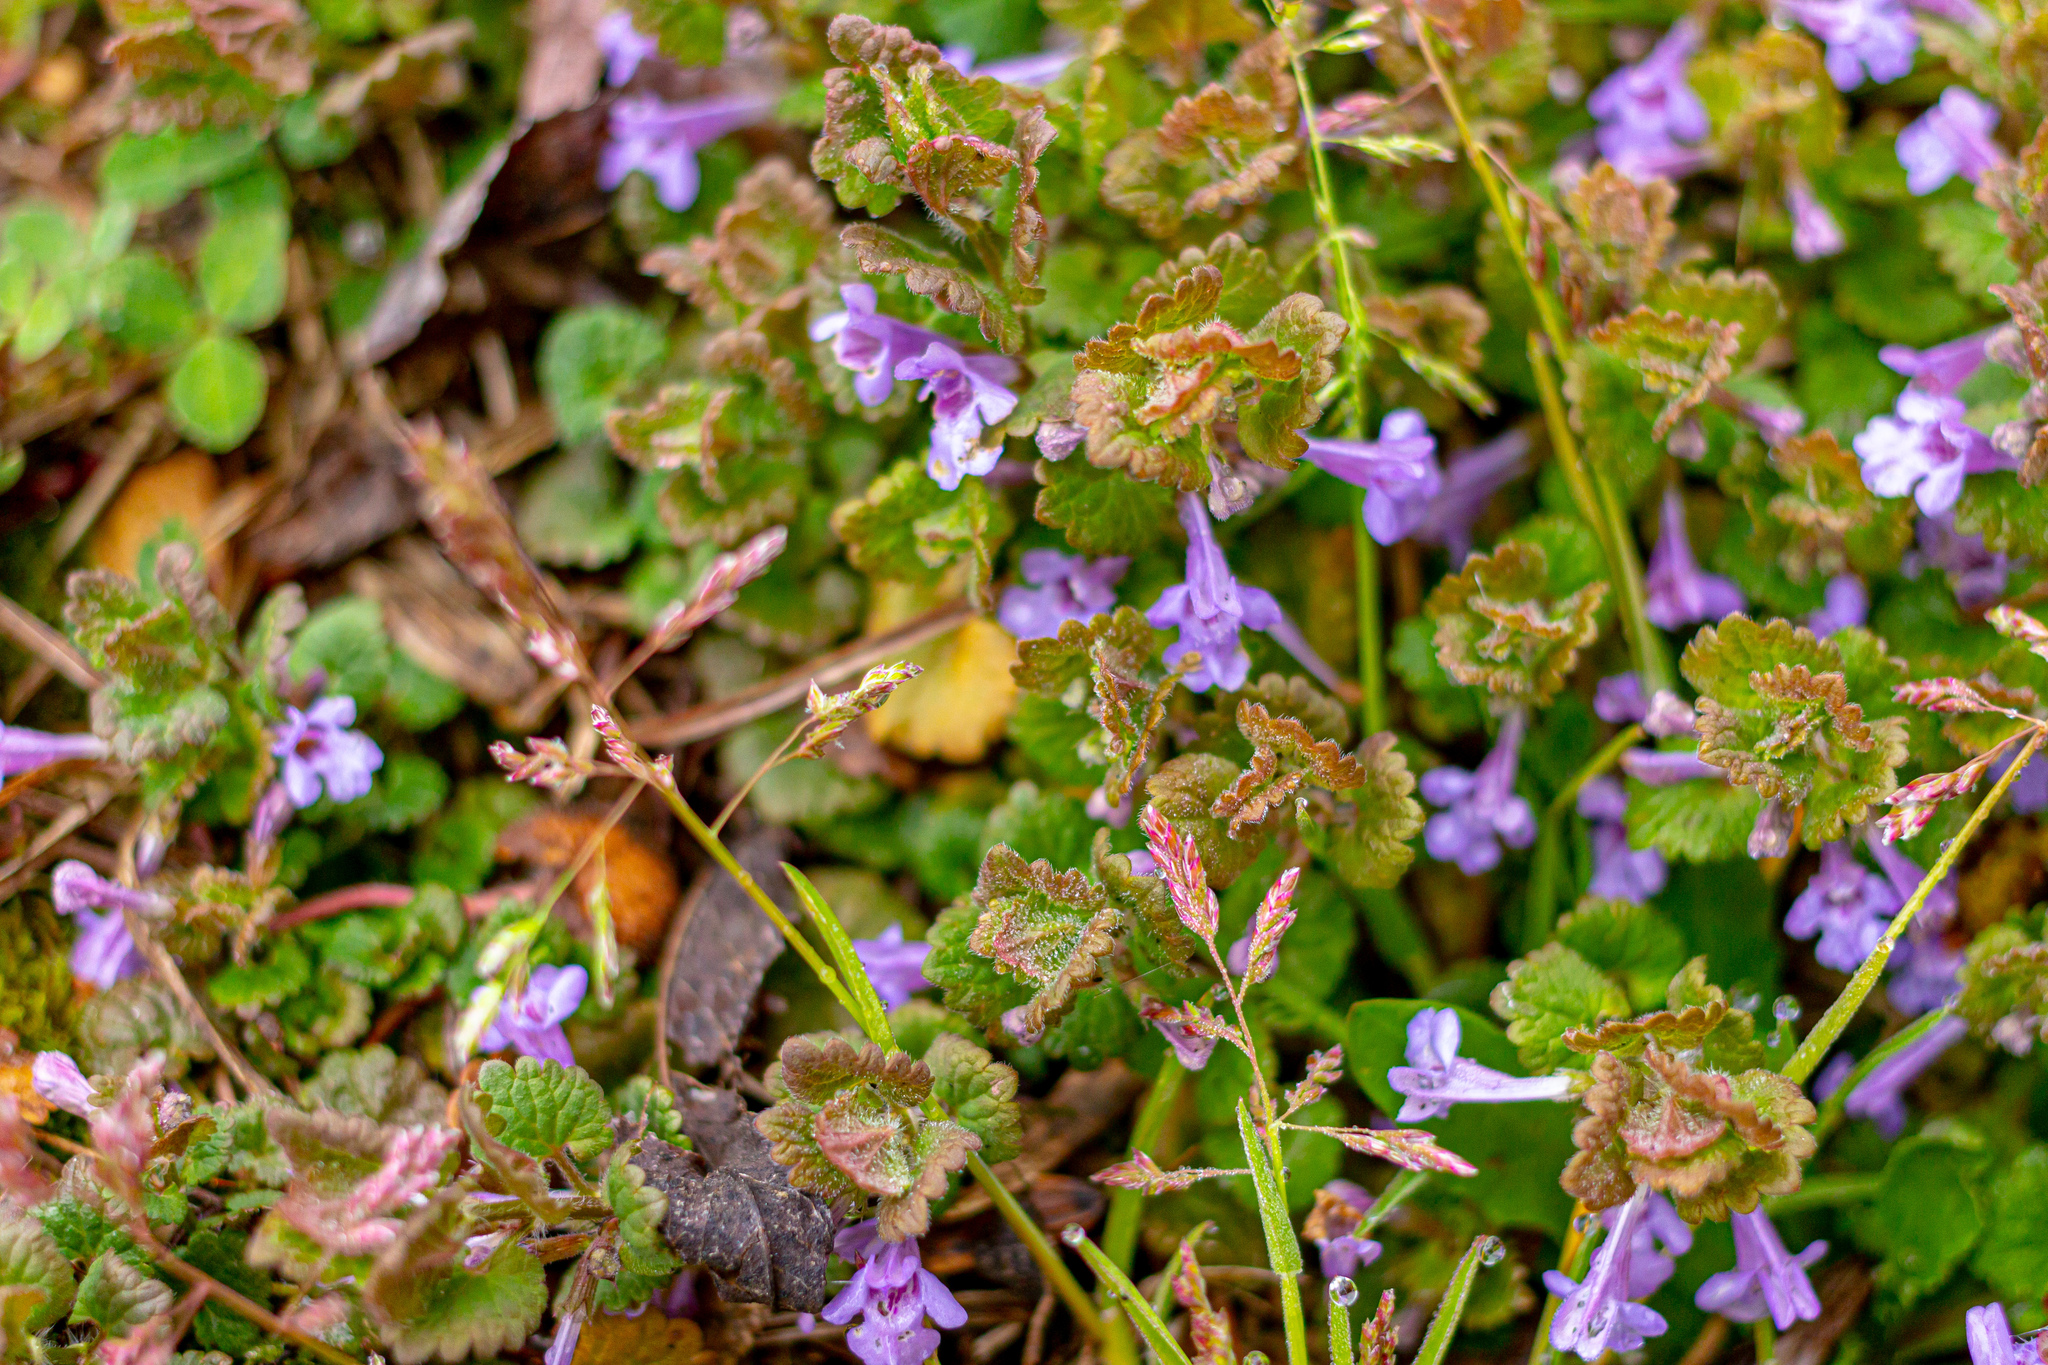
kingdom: Plantae
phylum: Tracheophyta
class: Magnoliopsida
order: Lamiales
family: Lamiaceae
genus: Glechoma
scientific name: Glechoma hederacea
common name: Ground ivy
